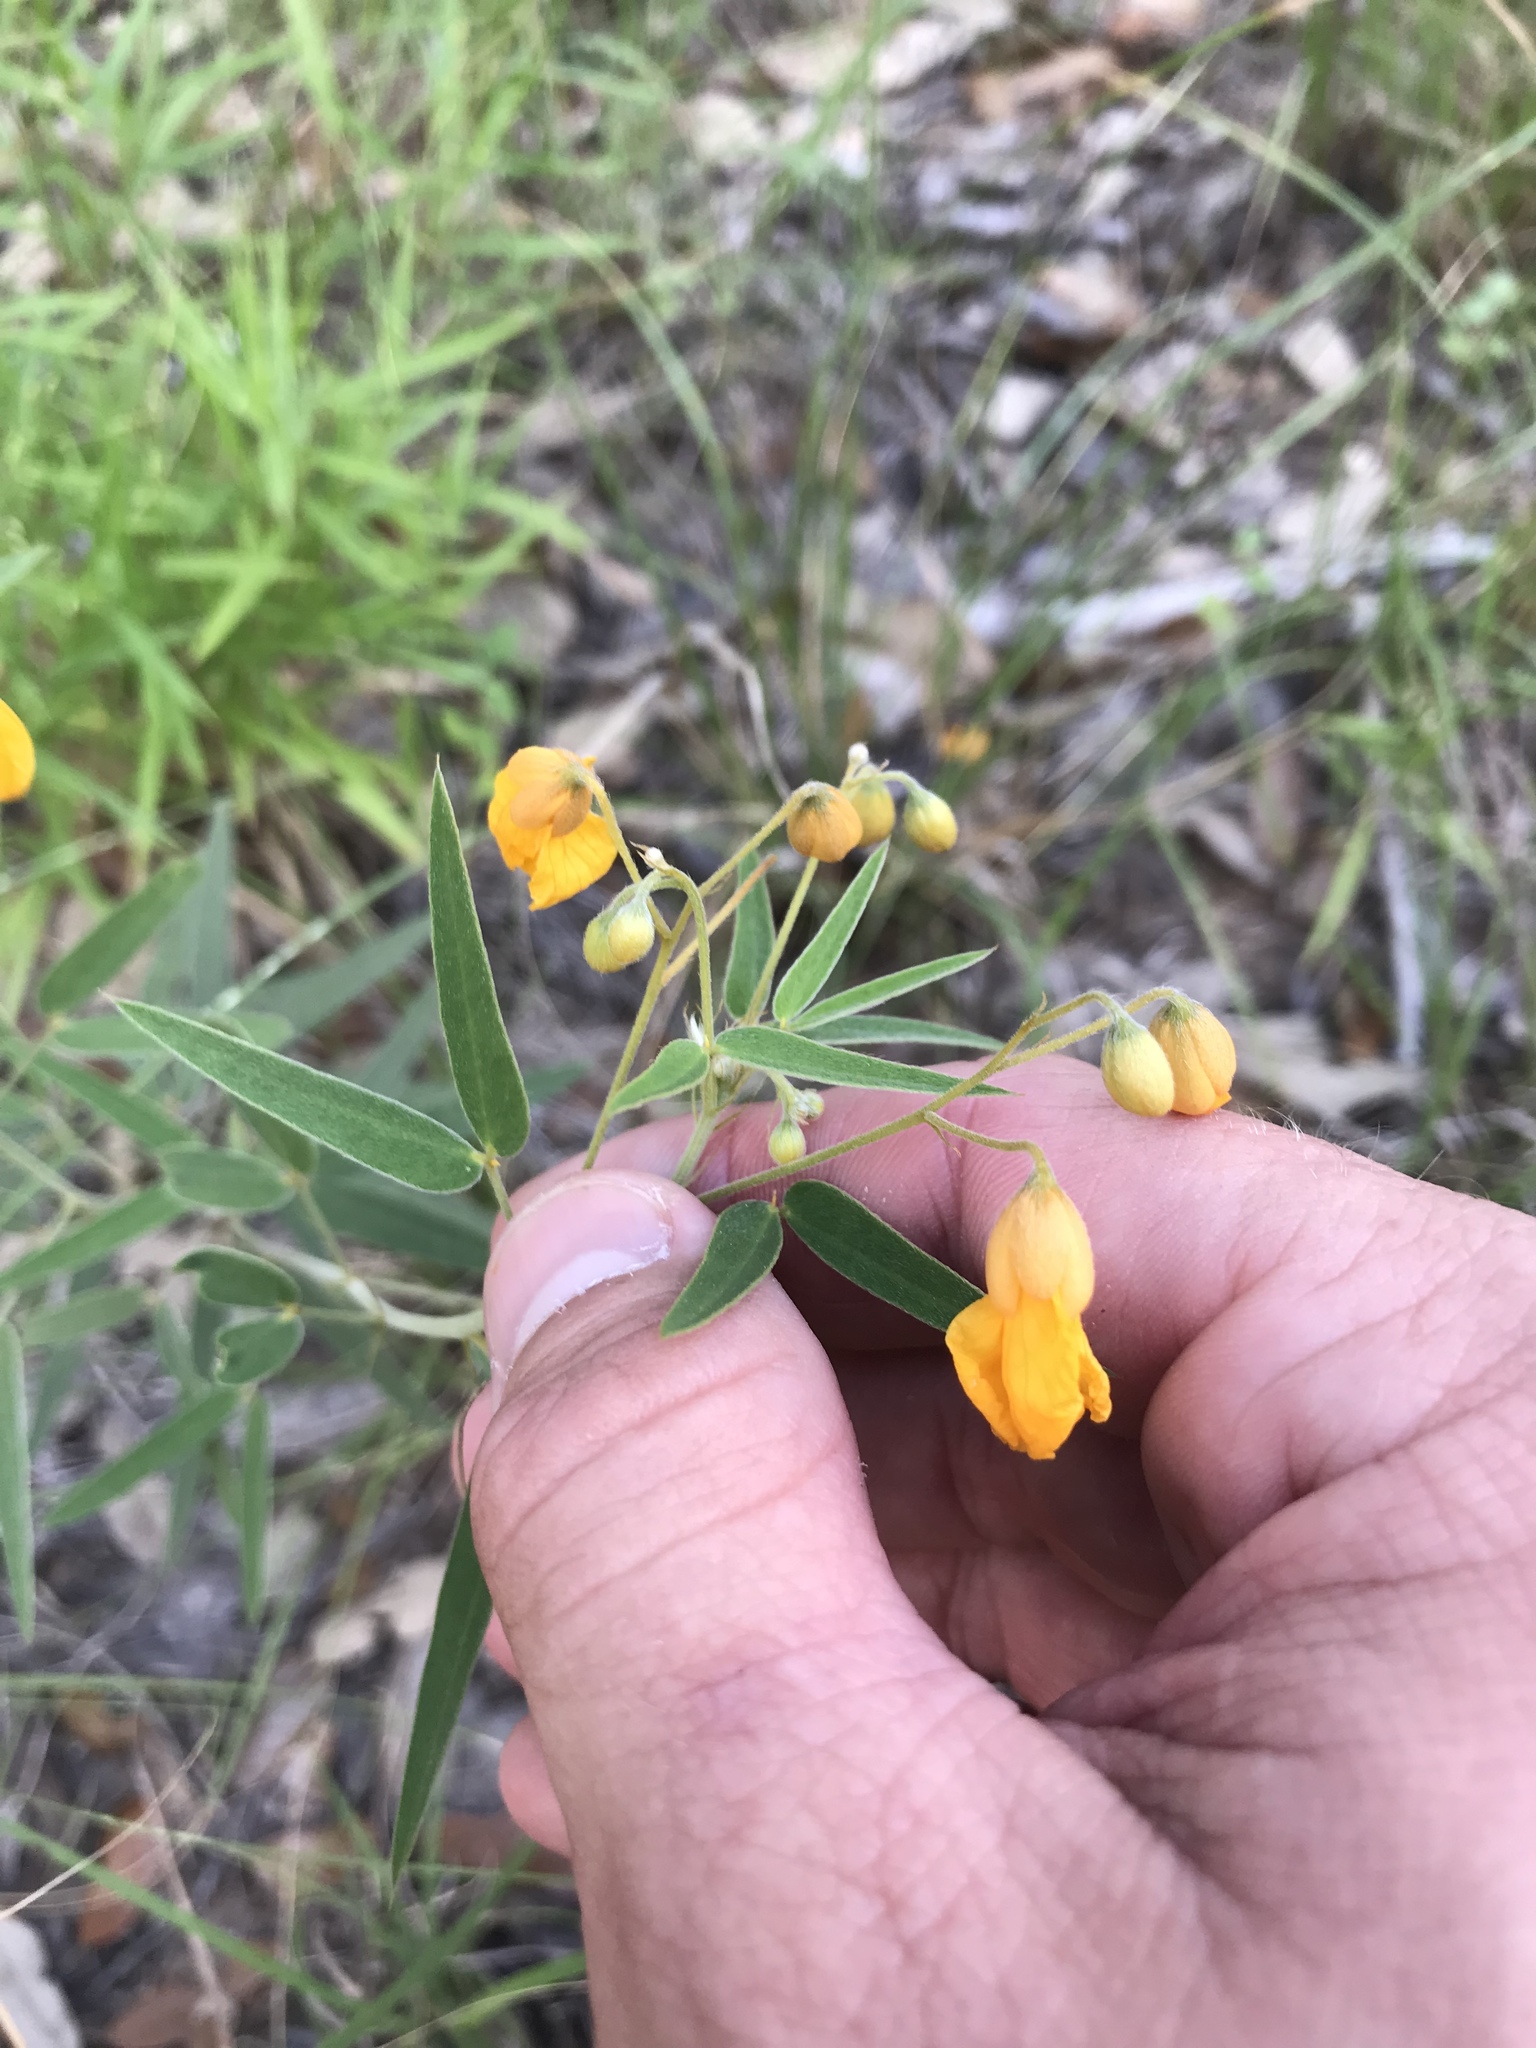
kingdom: Plantae
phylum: Tracheophyta
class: Magnoliopsida
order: Fabales
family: Fabaceae
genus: Senna
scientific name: Senna roemeriana
